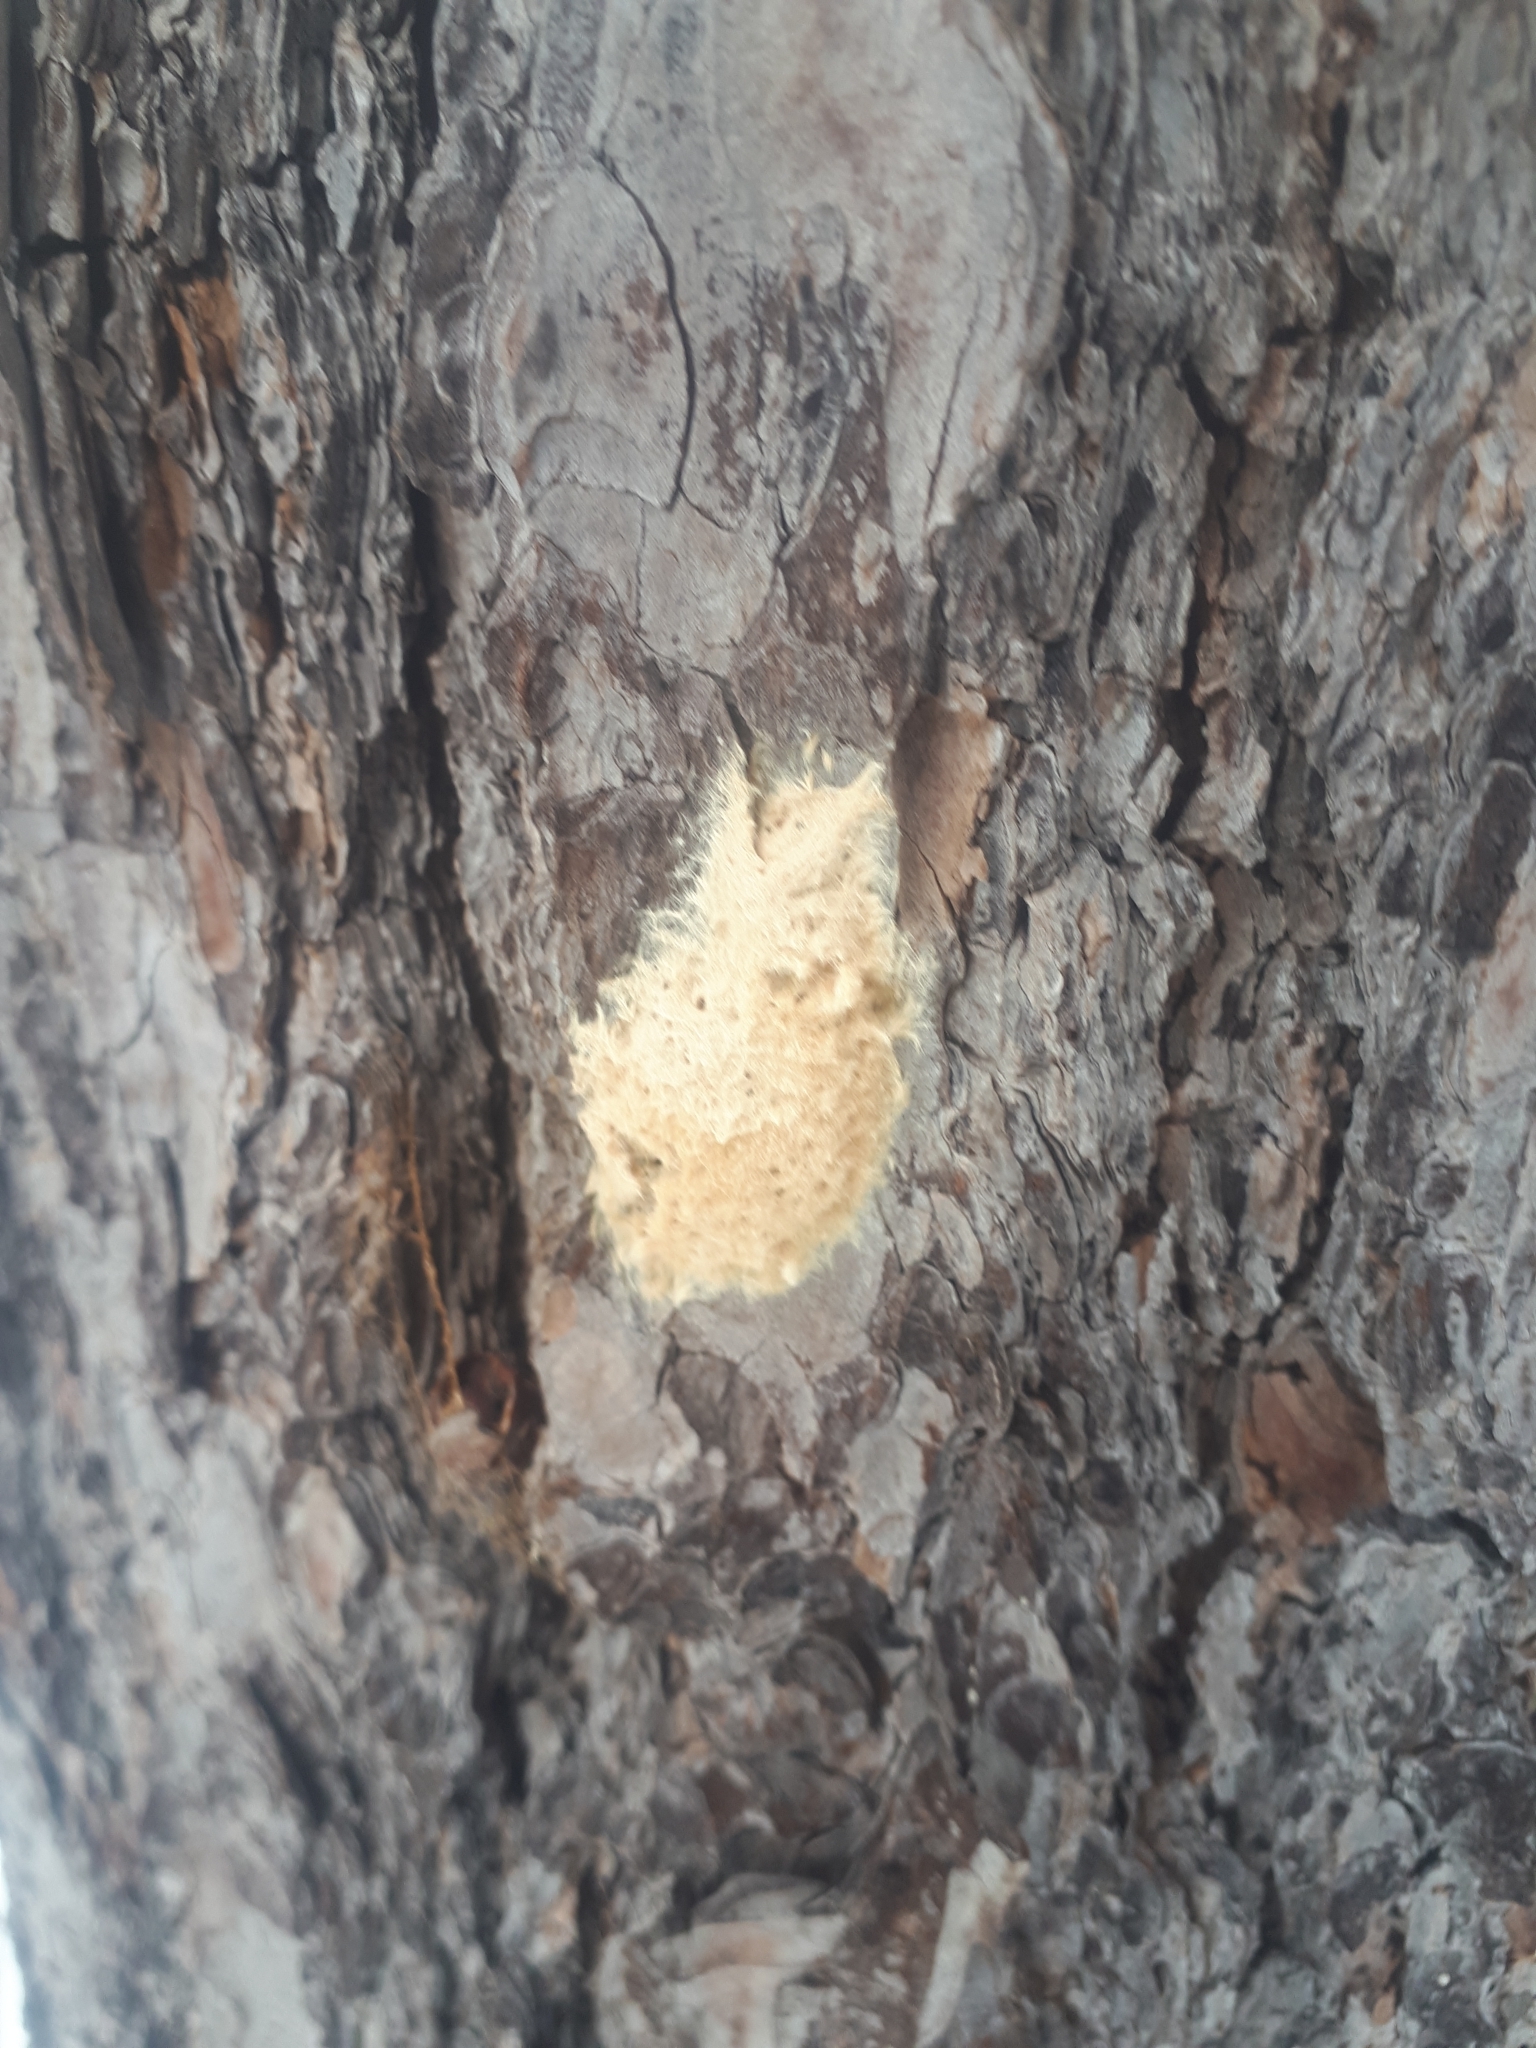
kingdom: Animalia
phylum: Arthropoda
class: Insecta
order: Lepidoptera
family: Erebidae
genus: Lymantria
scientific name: Lymantria dispar
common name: Gypsy moth
